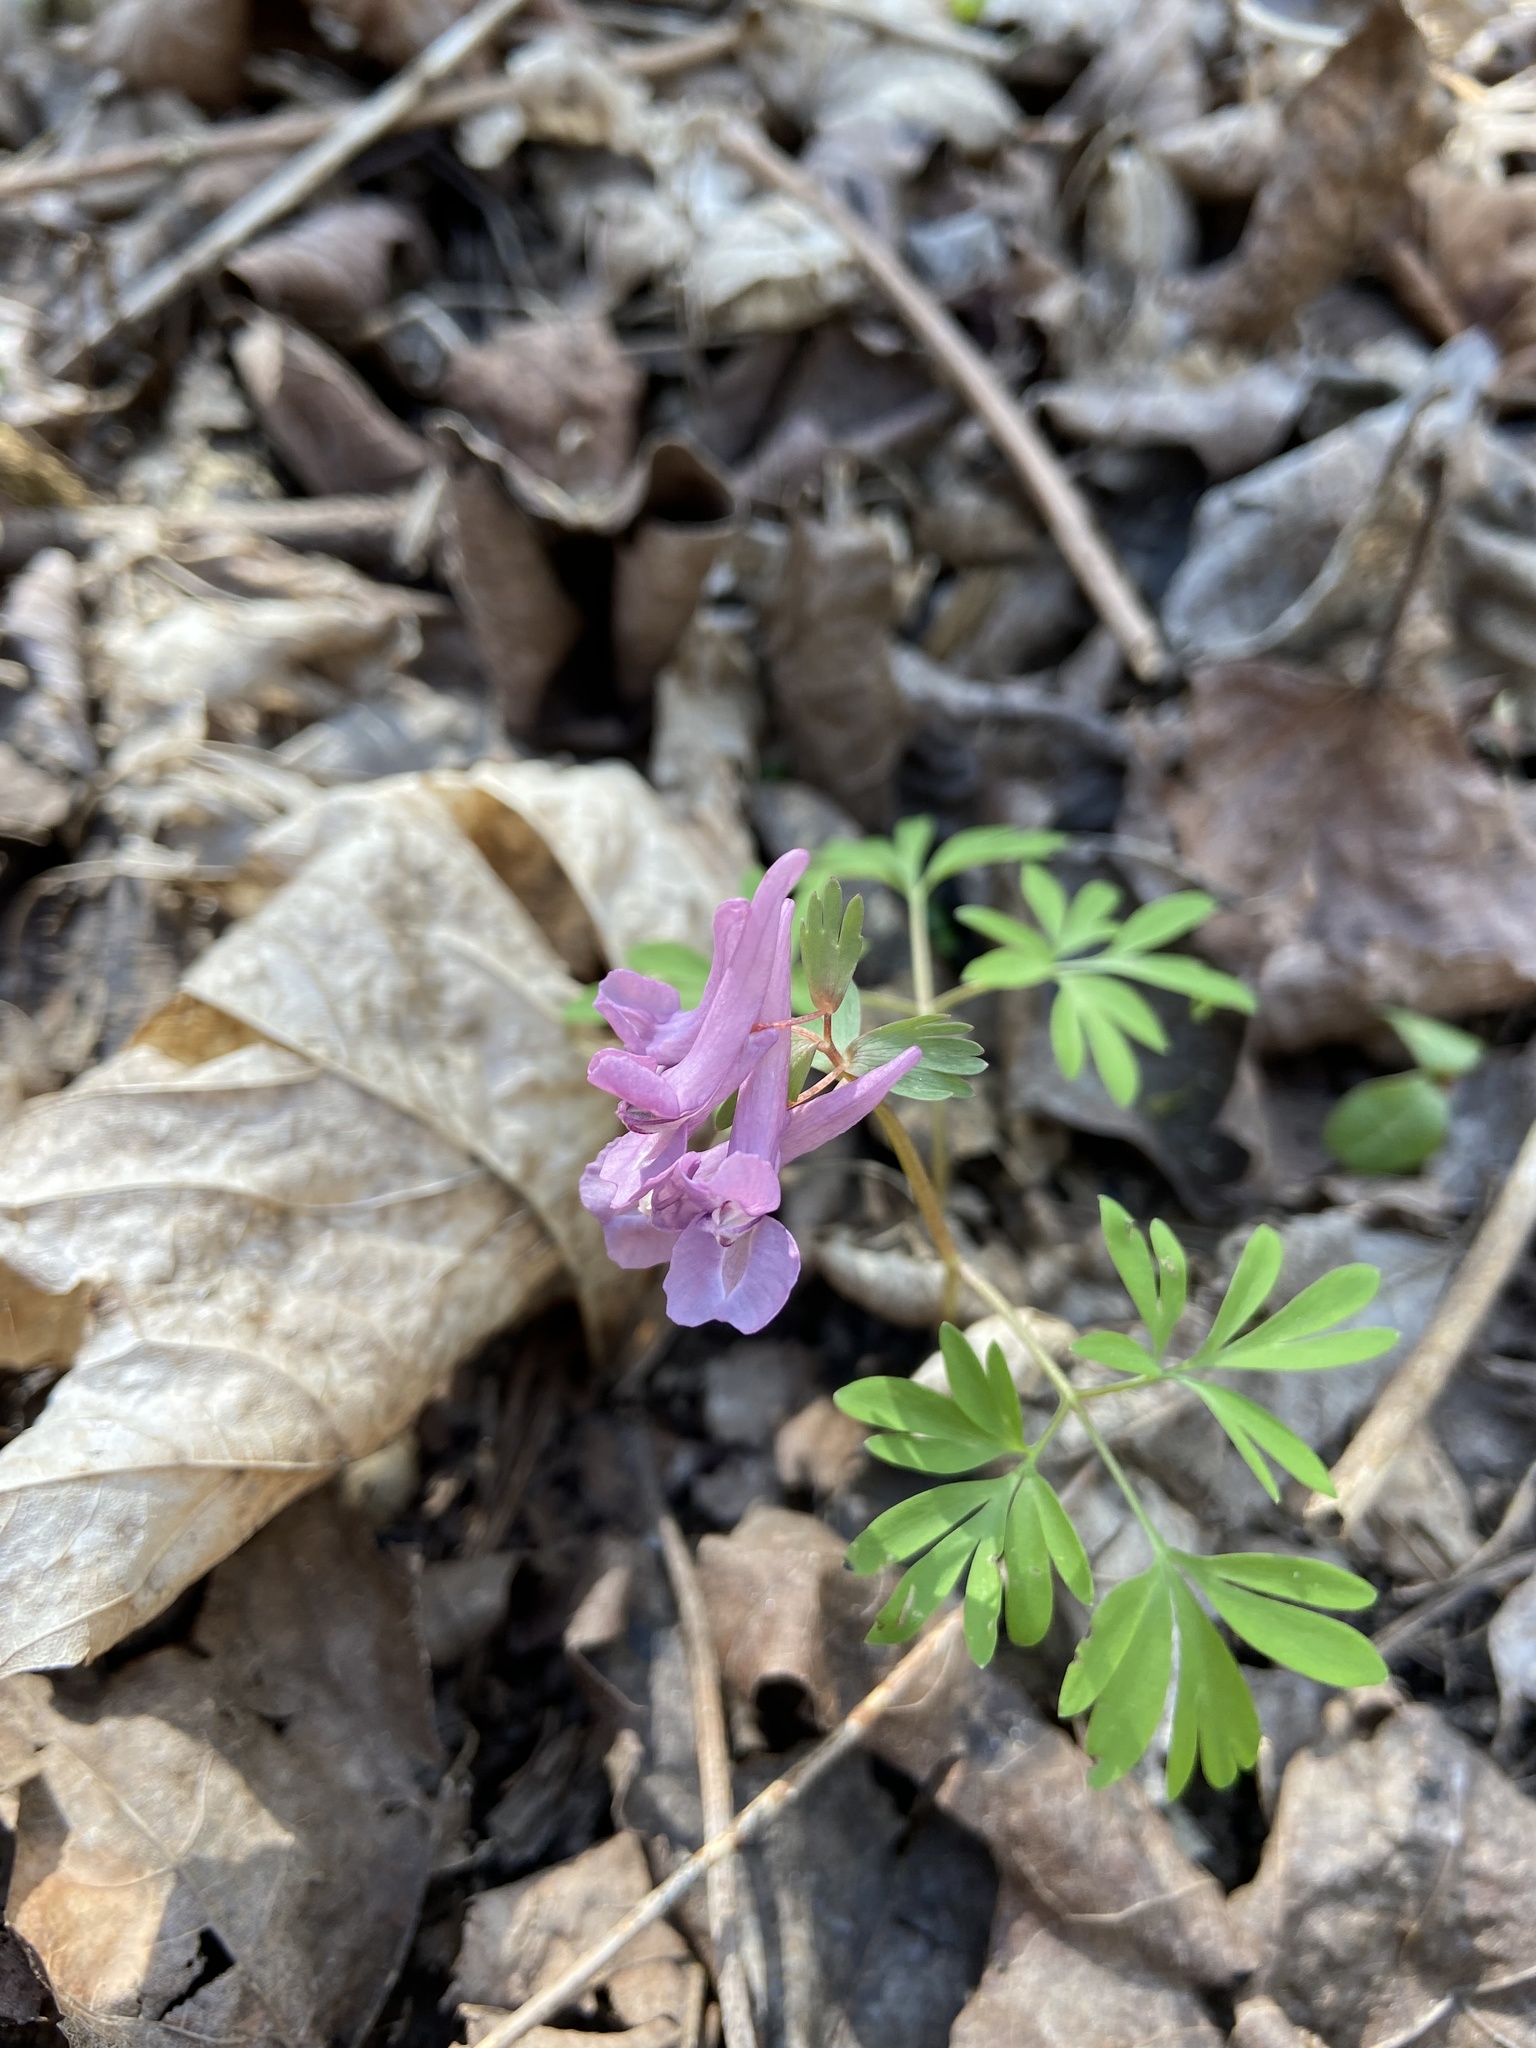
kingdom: Plantae
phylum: Tracheophyta
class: Magnoliopsida
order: Ranunculales
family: Papaveraceae
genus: Corydalis
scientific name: Corydalis solida
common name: Bird-in-a-bush
